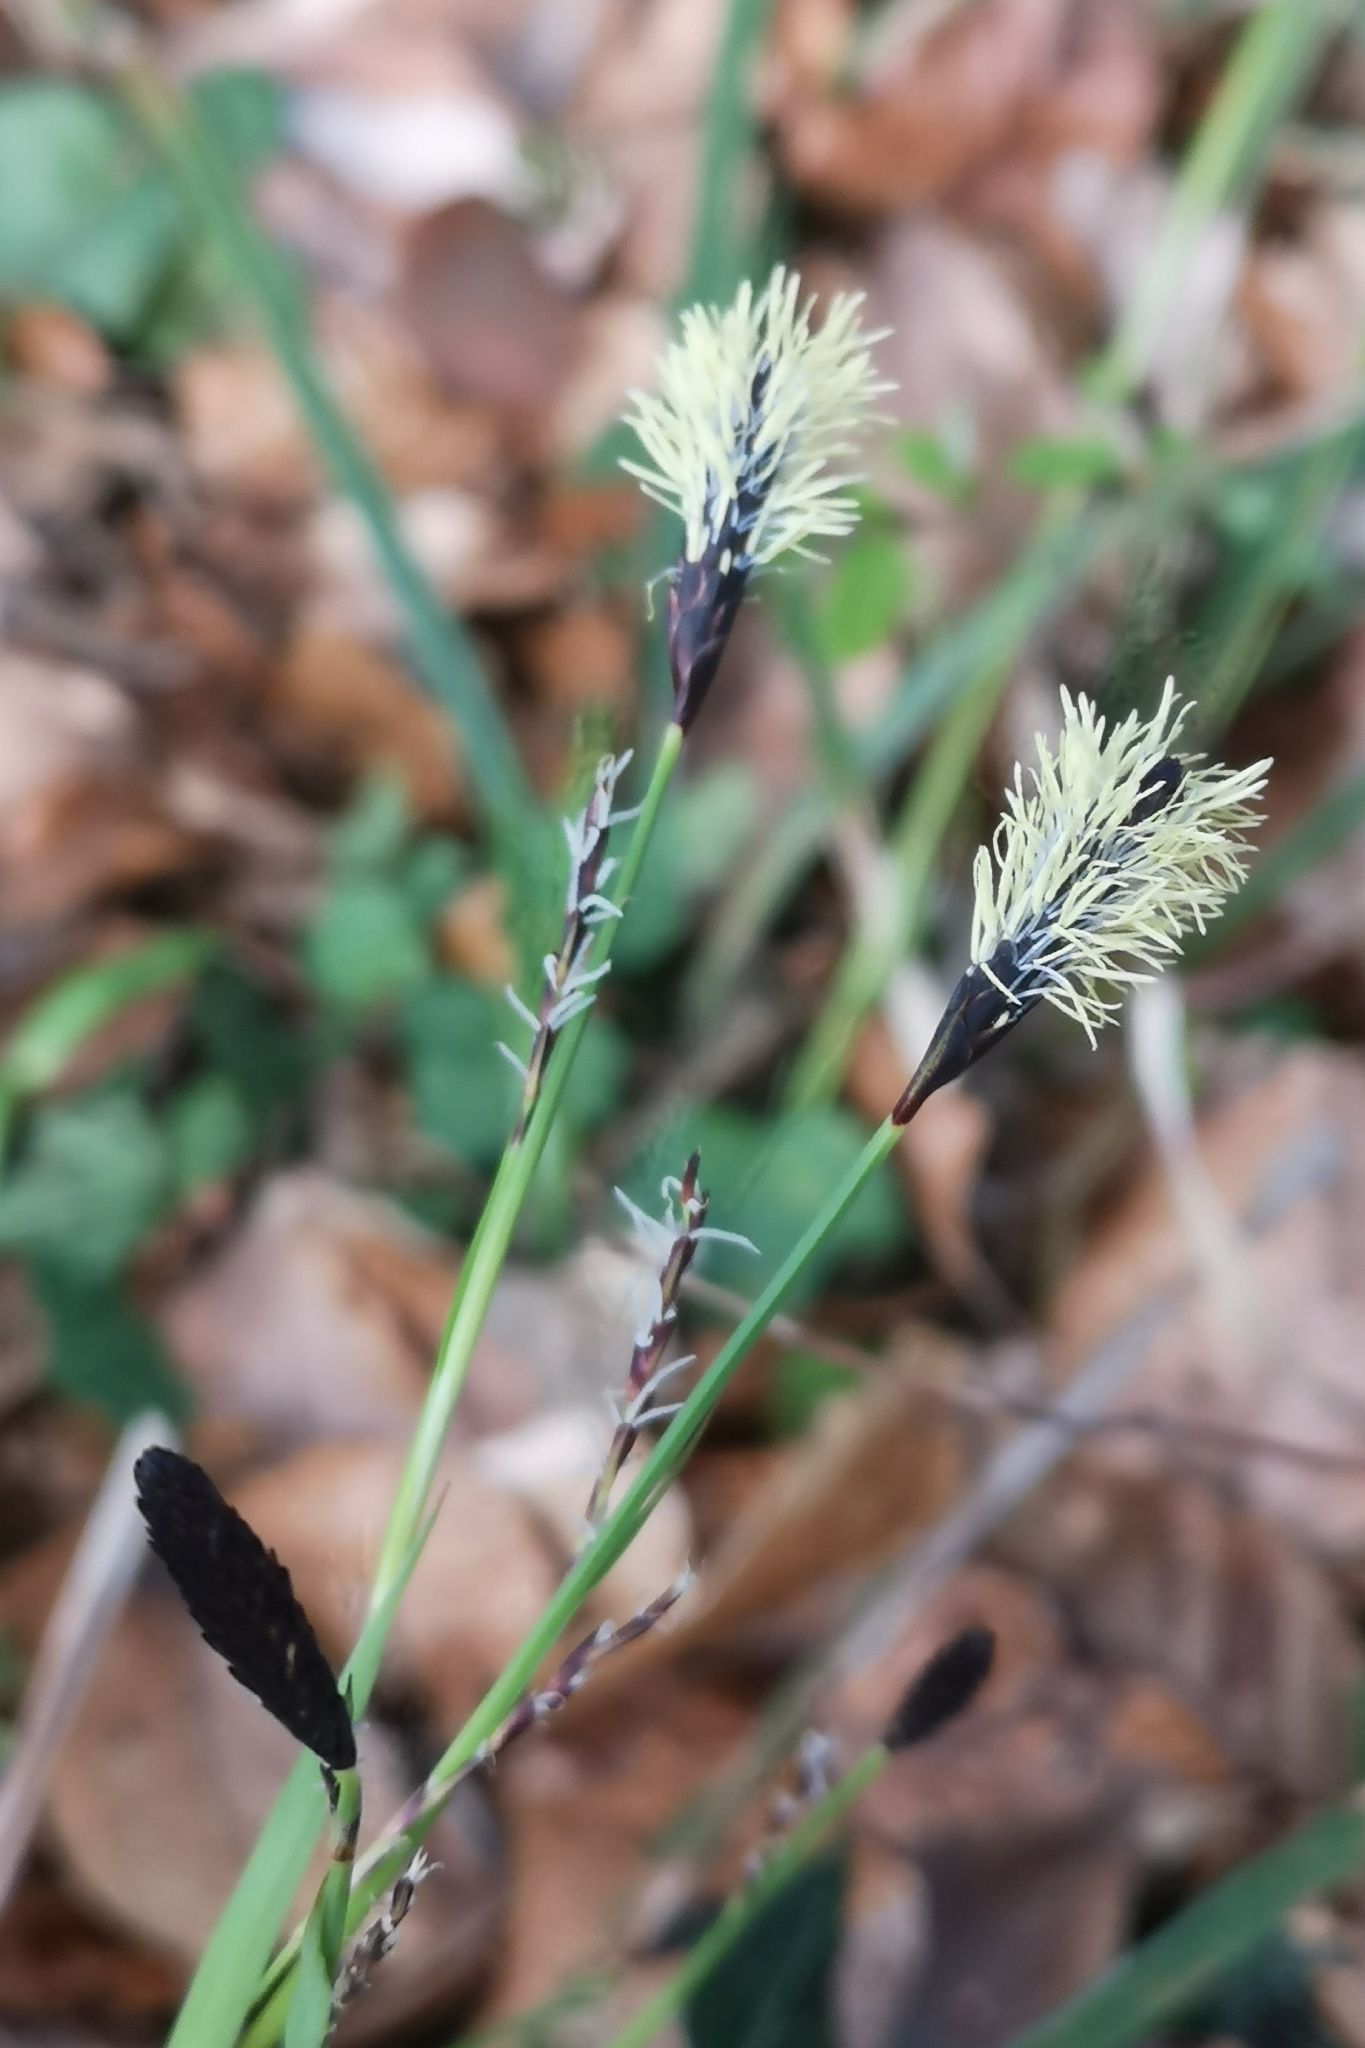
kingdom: Plantae
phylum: Tracheophyta
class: Liliopsida
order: Poales
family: Cyperaceae
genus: Carex
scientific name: Carex montana
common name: Soft-leaved sedge
